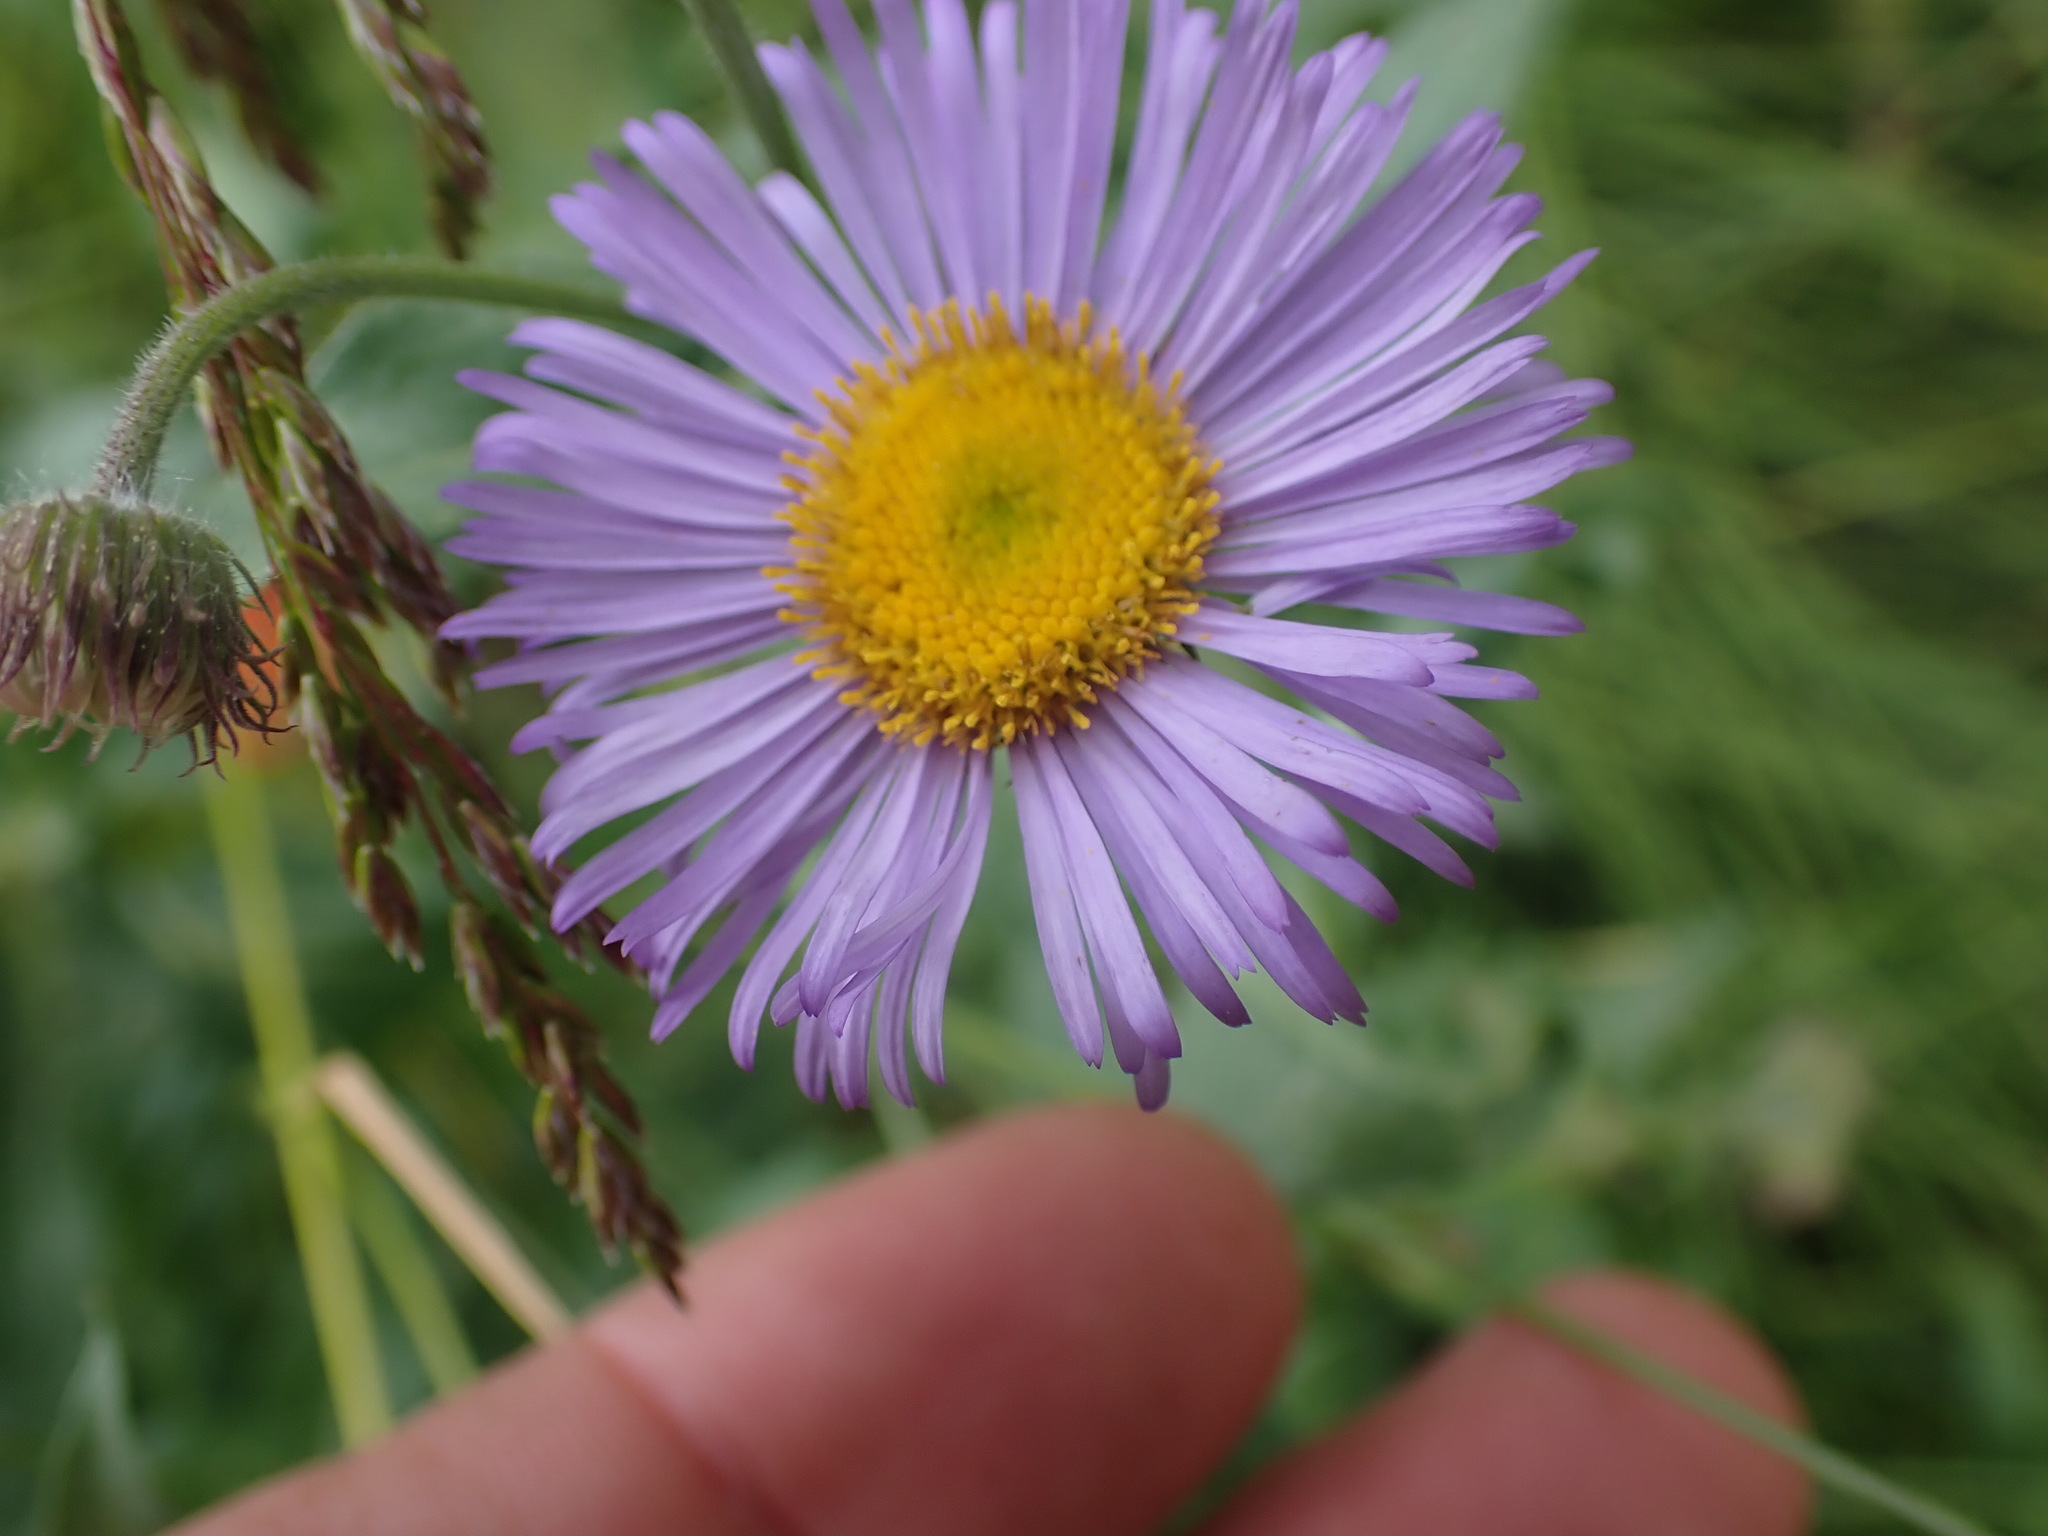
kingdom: Plantae
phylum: Tracheophyta
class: Magnoliopsida
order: Asterales
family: Asteraceae
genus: Erigeron
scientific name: Erigeron speciosus
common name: Aspen fleabane
